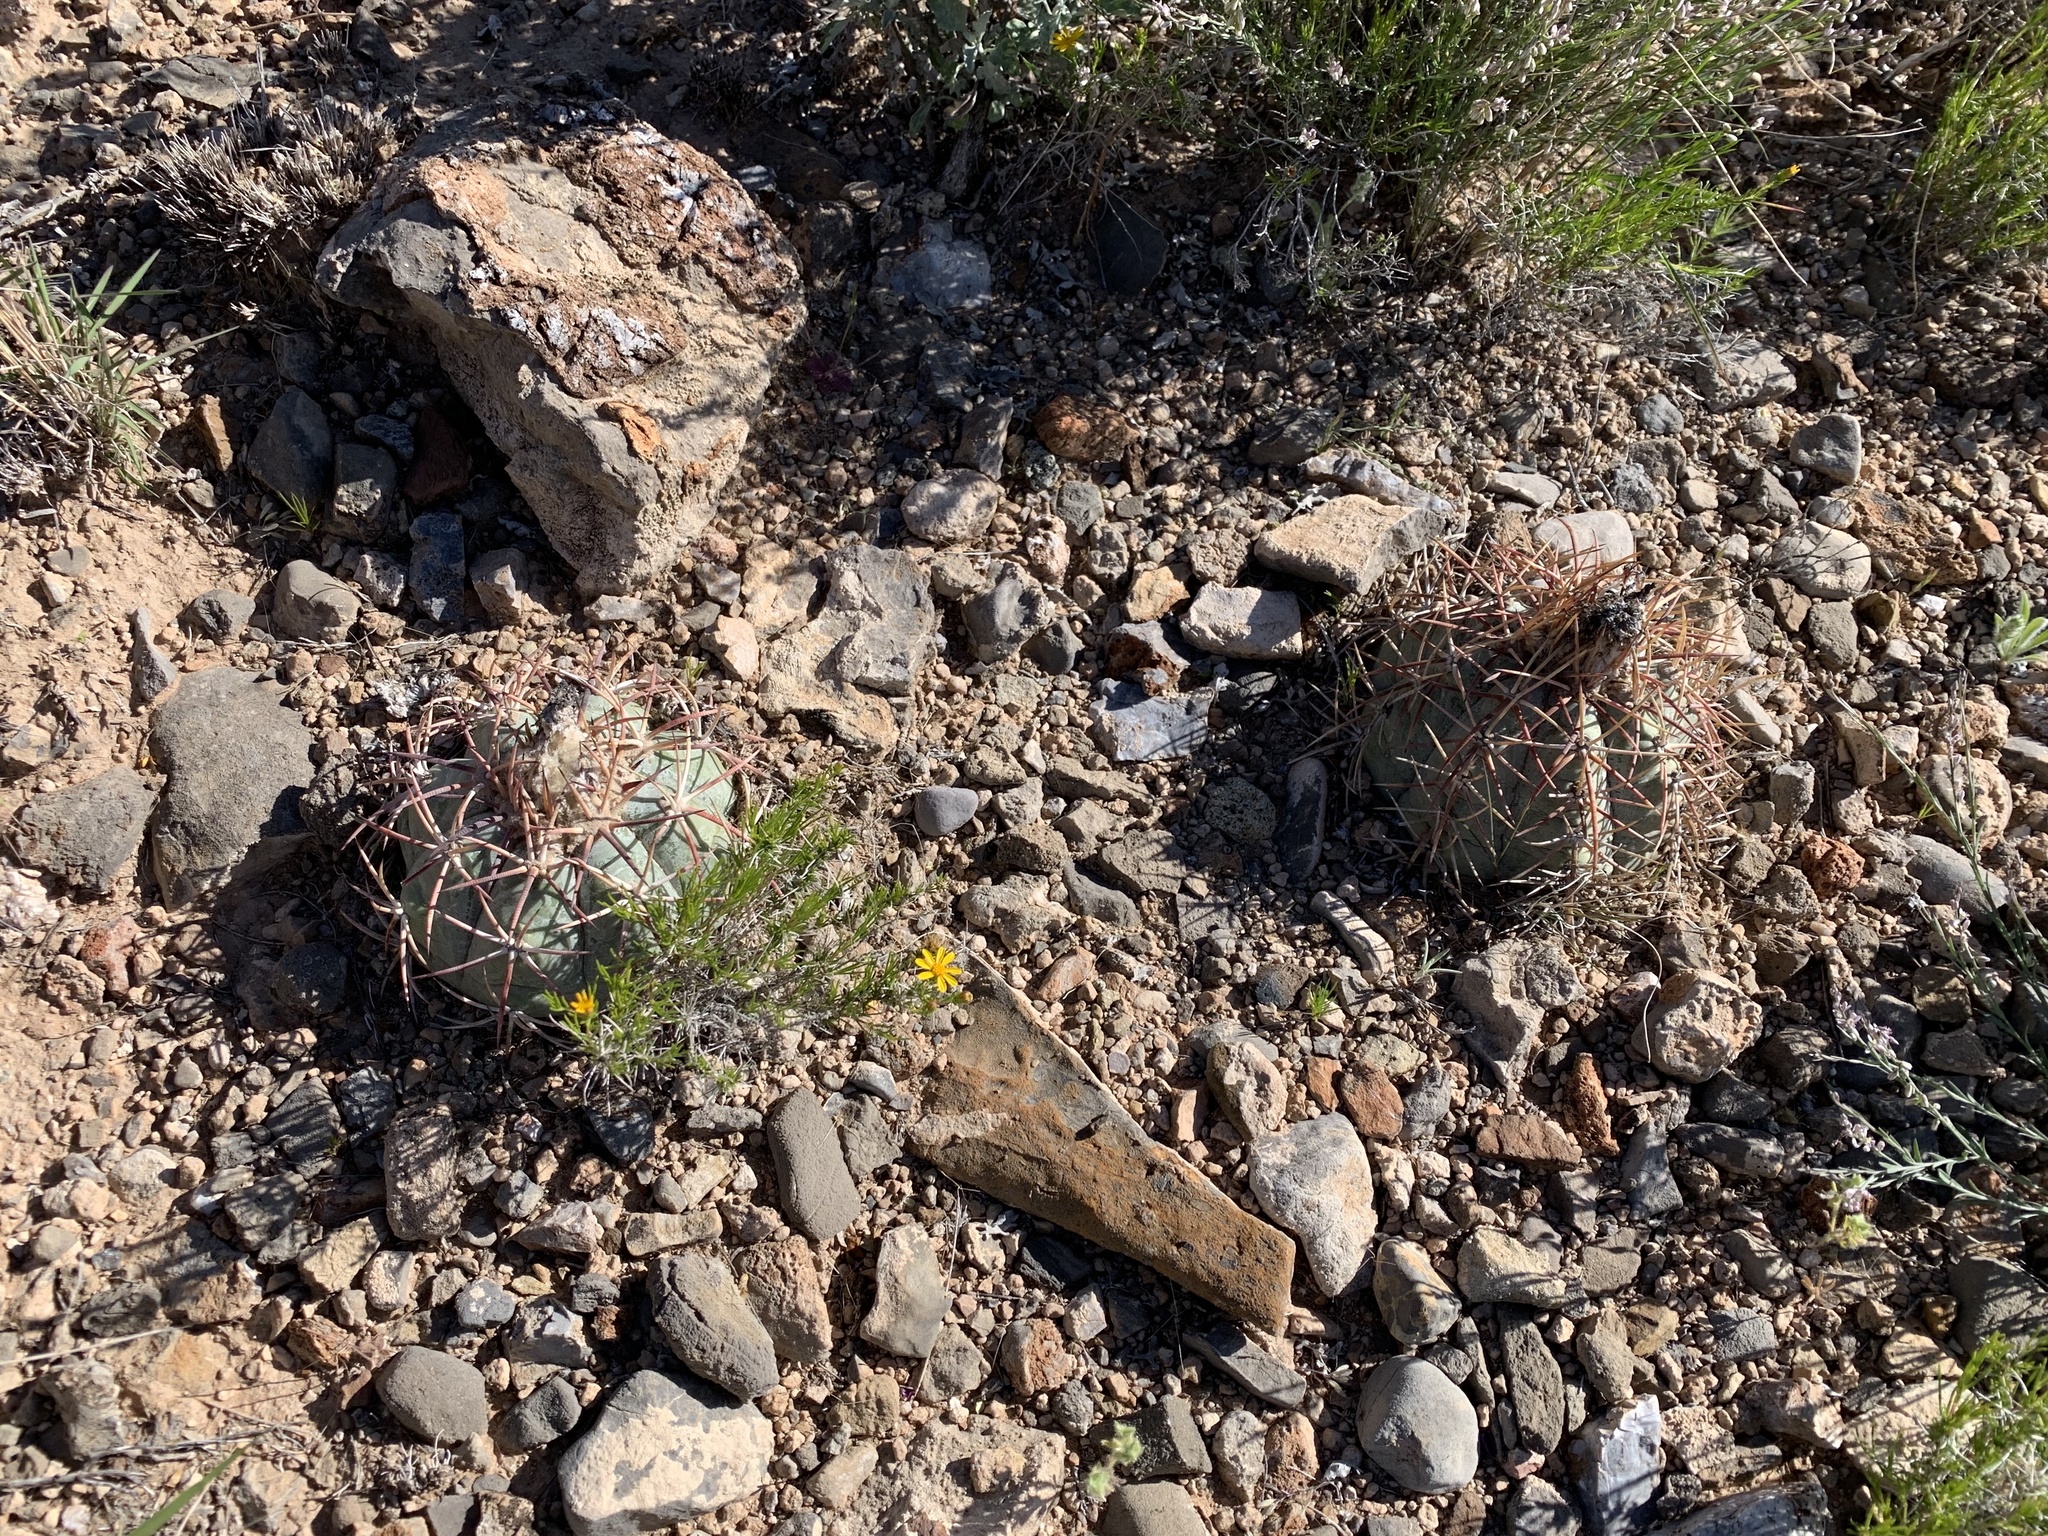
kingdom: Plantae
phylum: Tracheophyta
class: Magnoliopsida
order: Caryophyllales
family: Cactaceae
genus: Echinocactus
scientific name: Echinocactus horizonthalonius
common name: Devilshead
